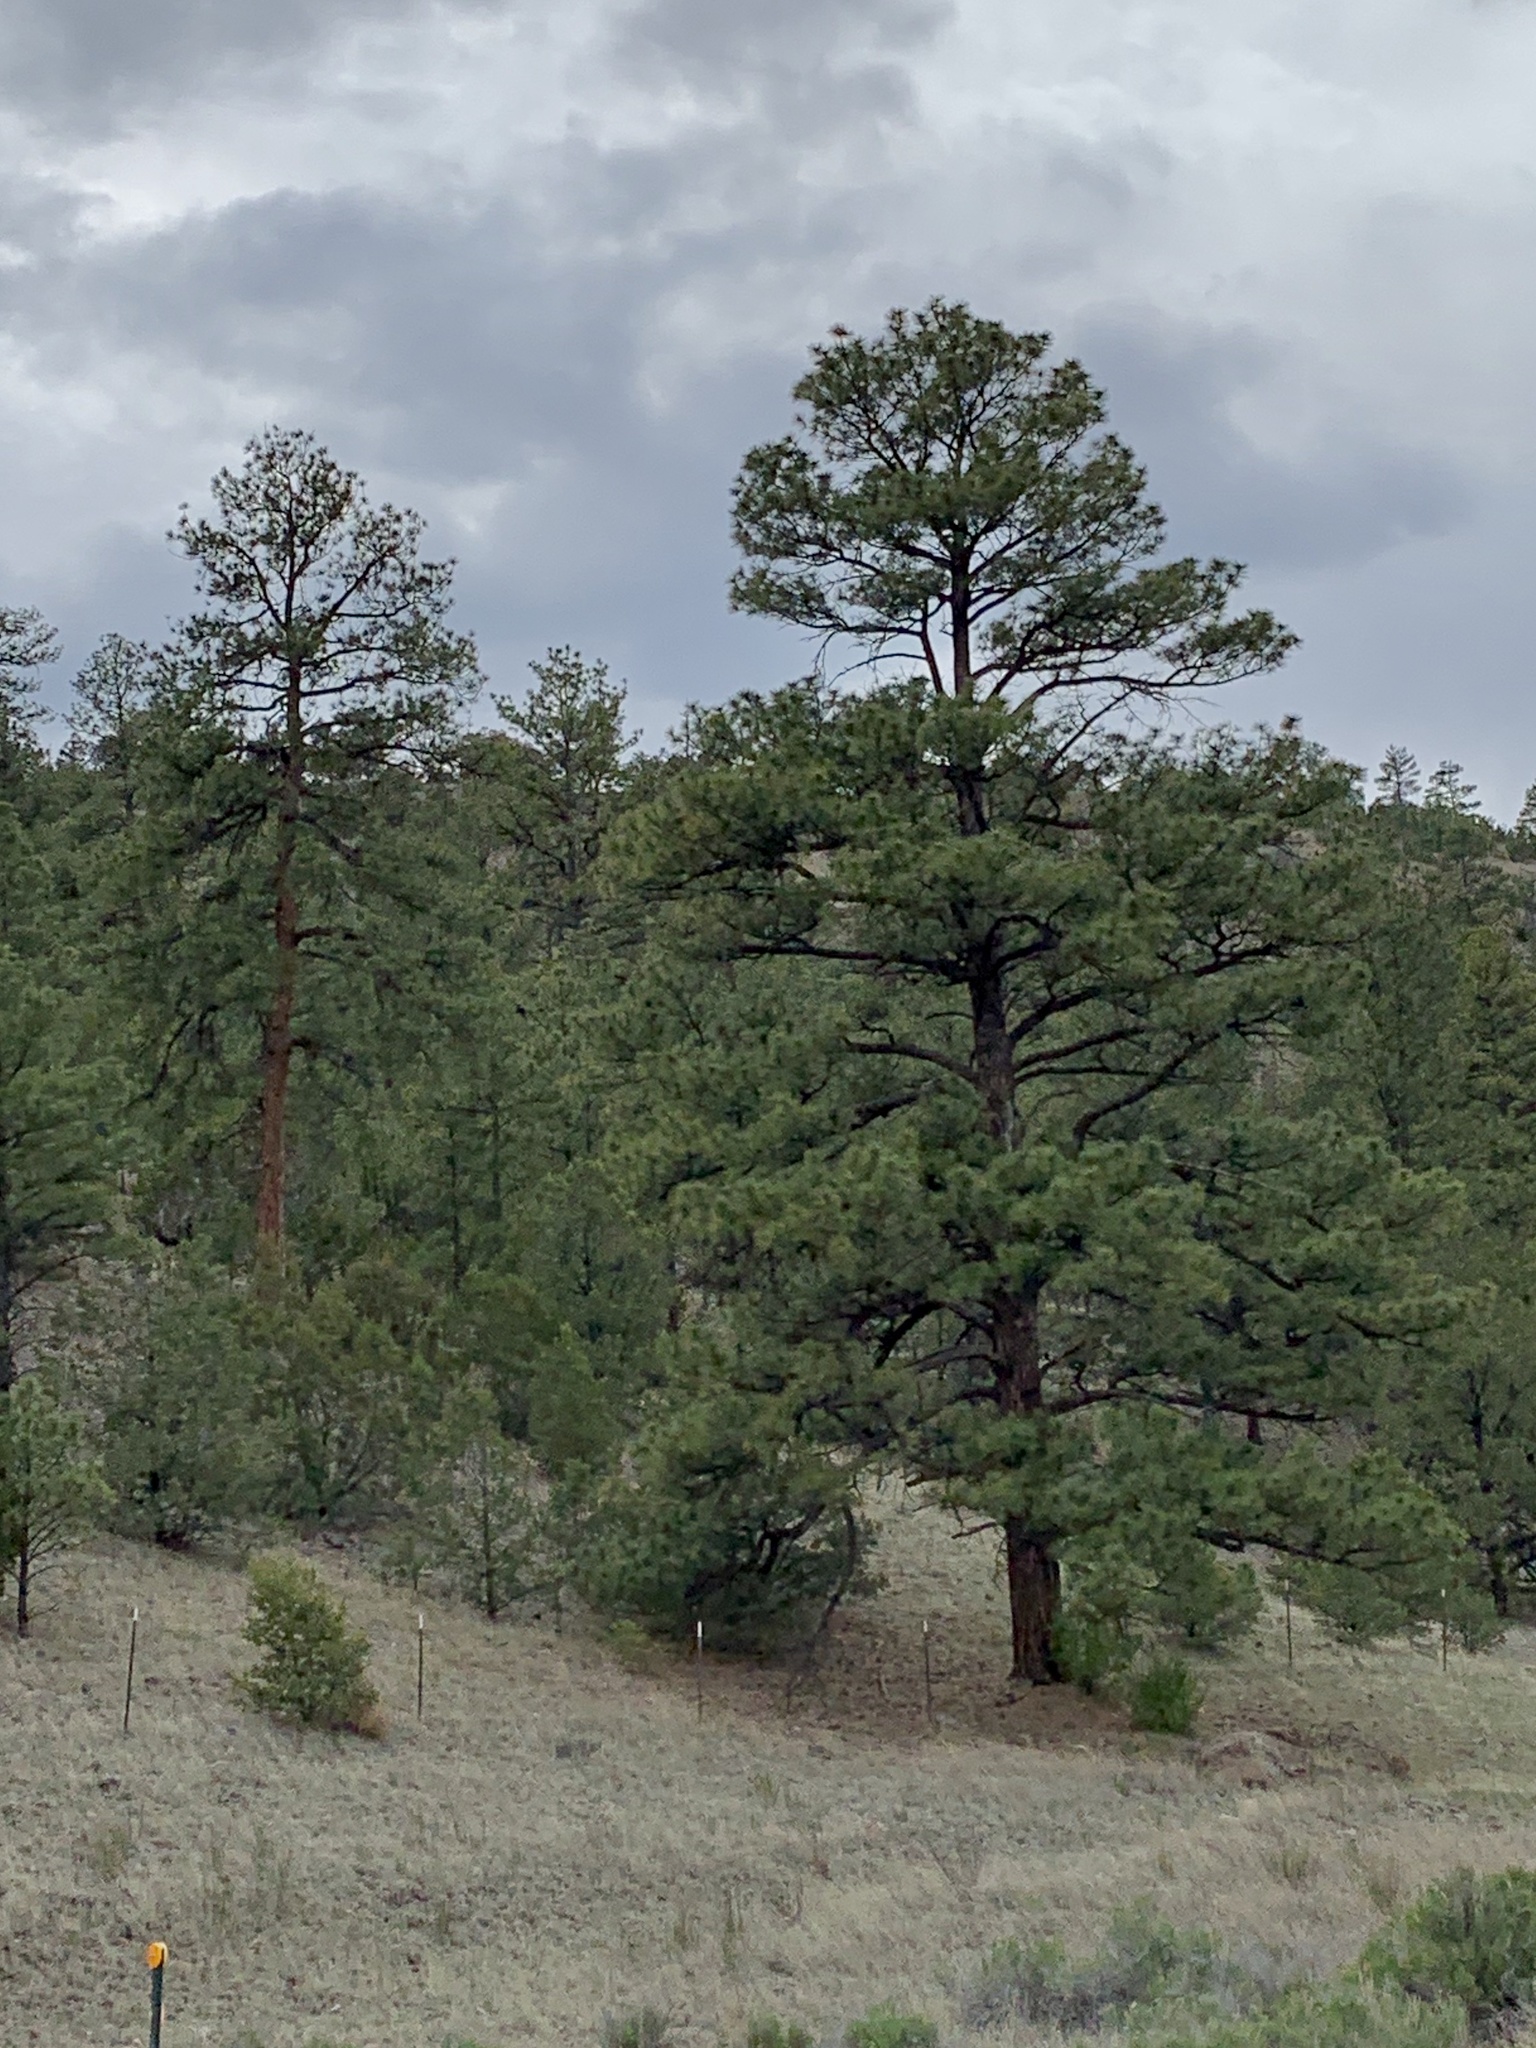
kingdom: Plantae
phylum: Tracheophyta
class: Pinopsida
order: Pinales
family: Pinaceae
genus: Pinus
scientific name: Pinus ponderosa
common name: Western yellow-pine
